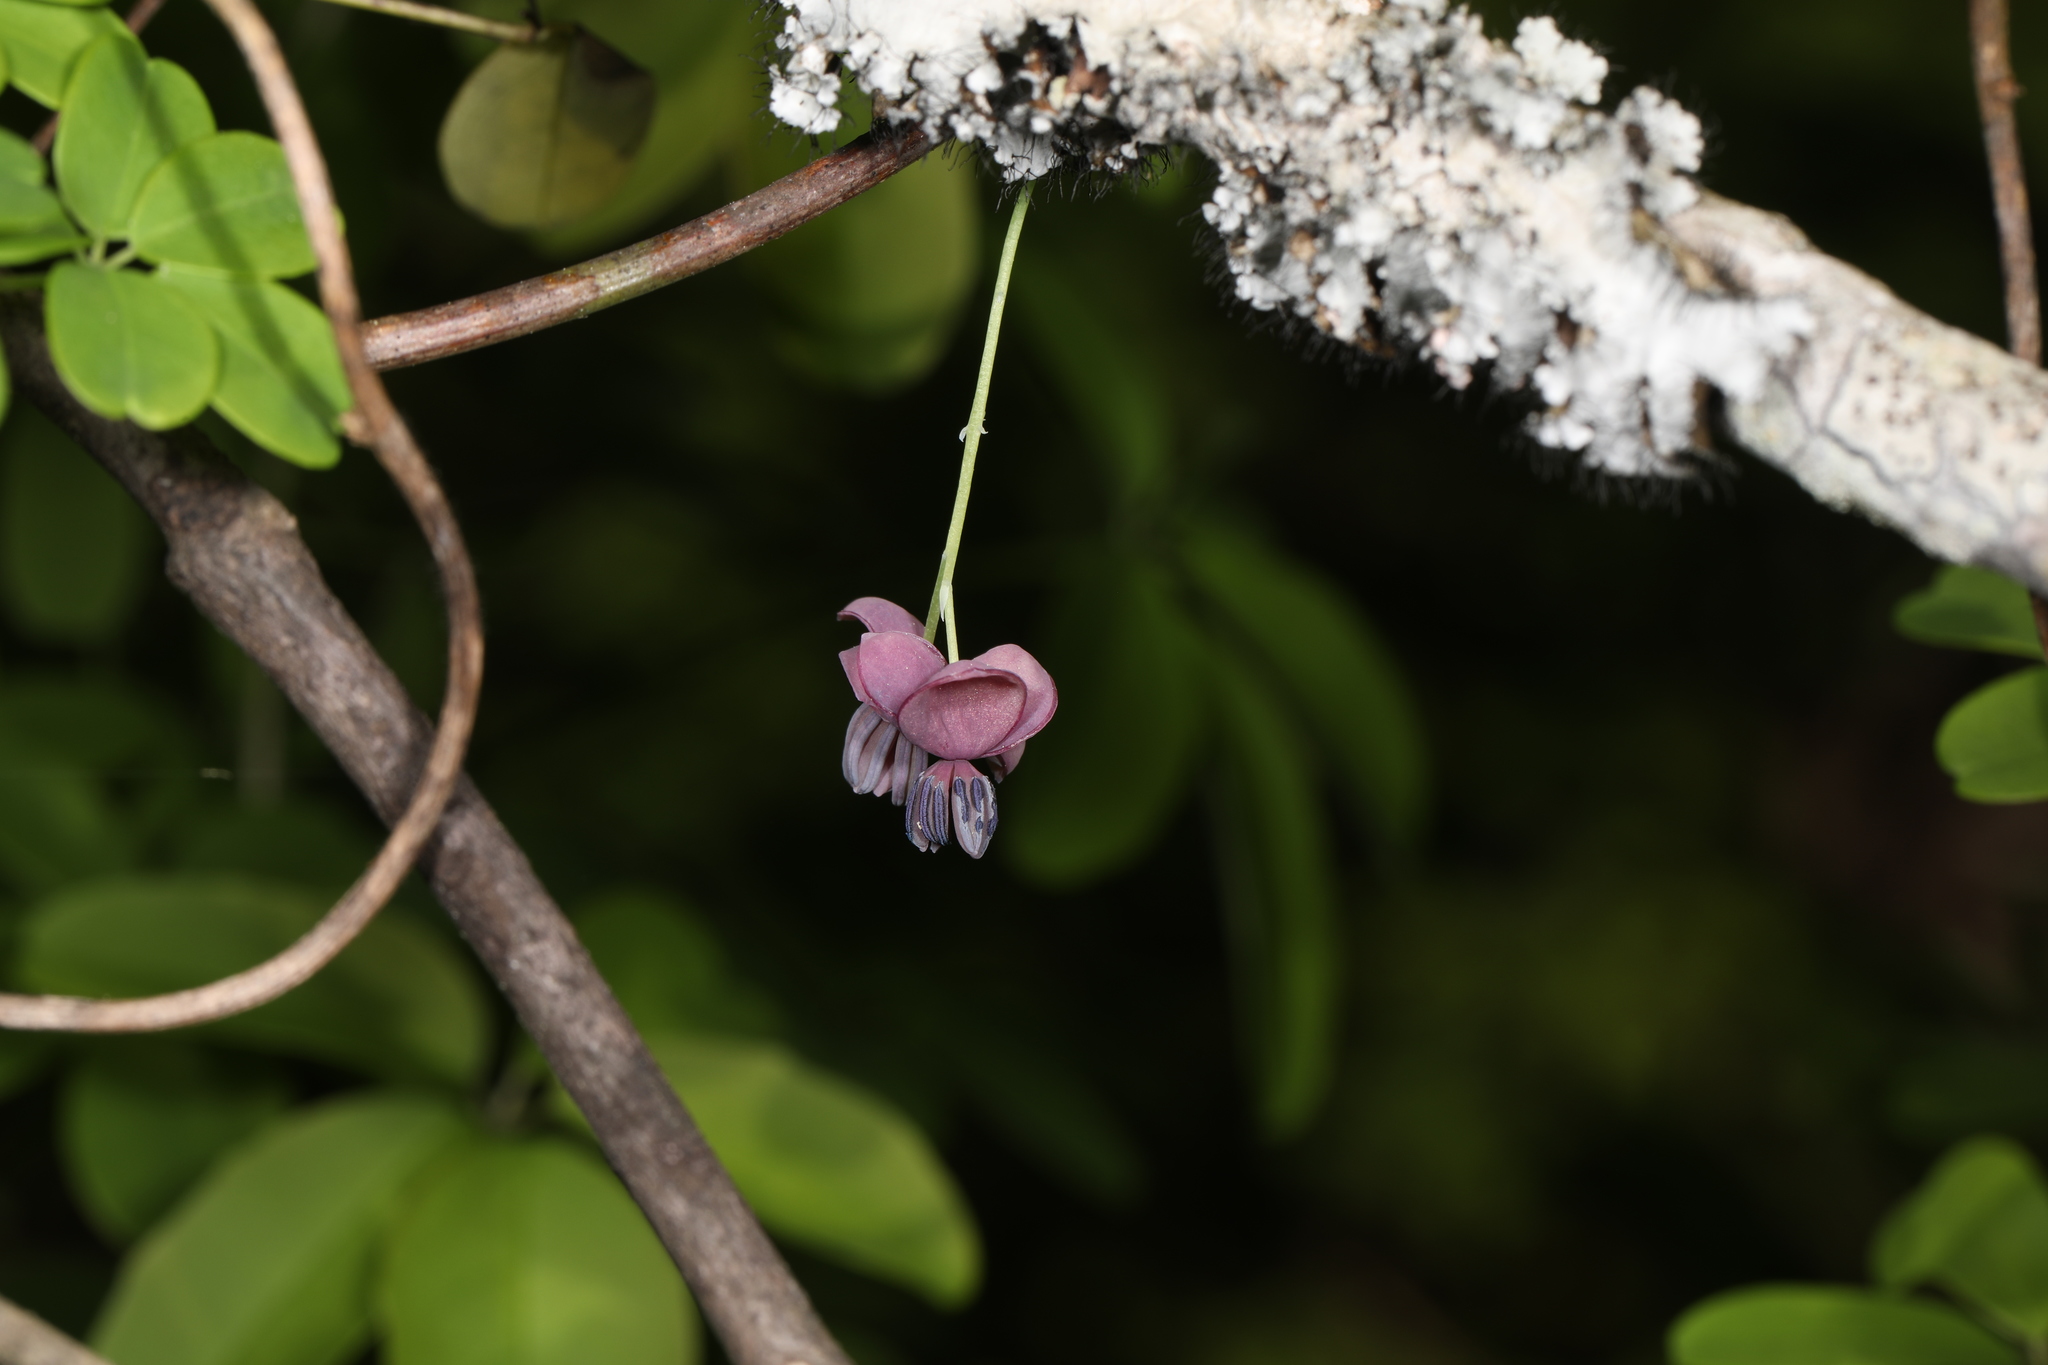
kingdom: Plantae
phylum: Tracheophyta
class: Magnoliopsida
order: Ranunculales
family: Lardizabalaceae
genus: Akebia
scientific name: Akebia quinata
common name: Five-leaf akebia
